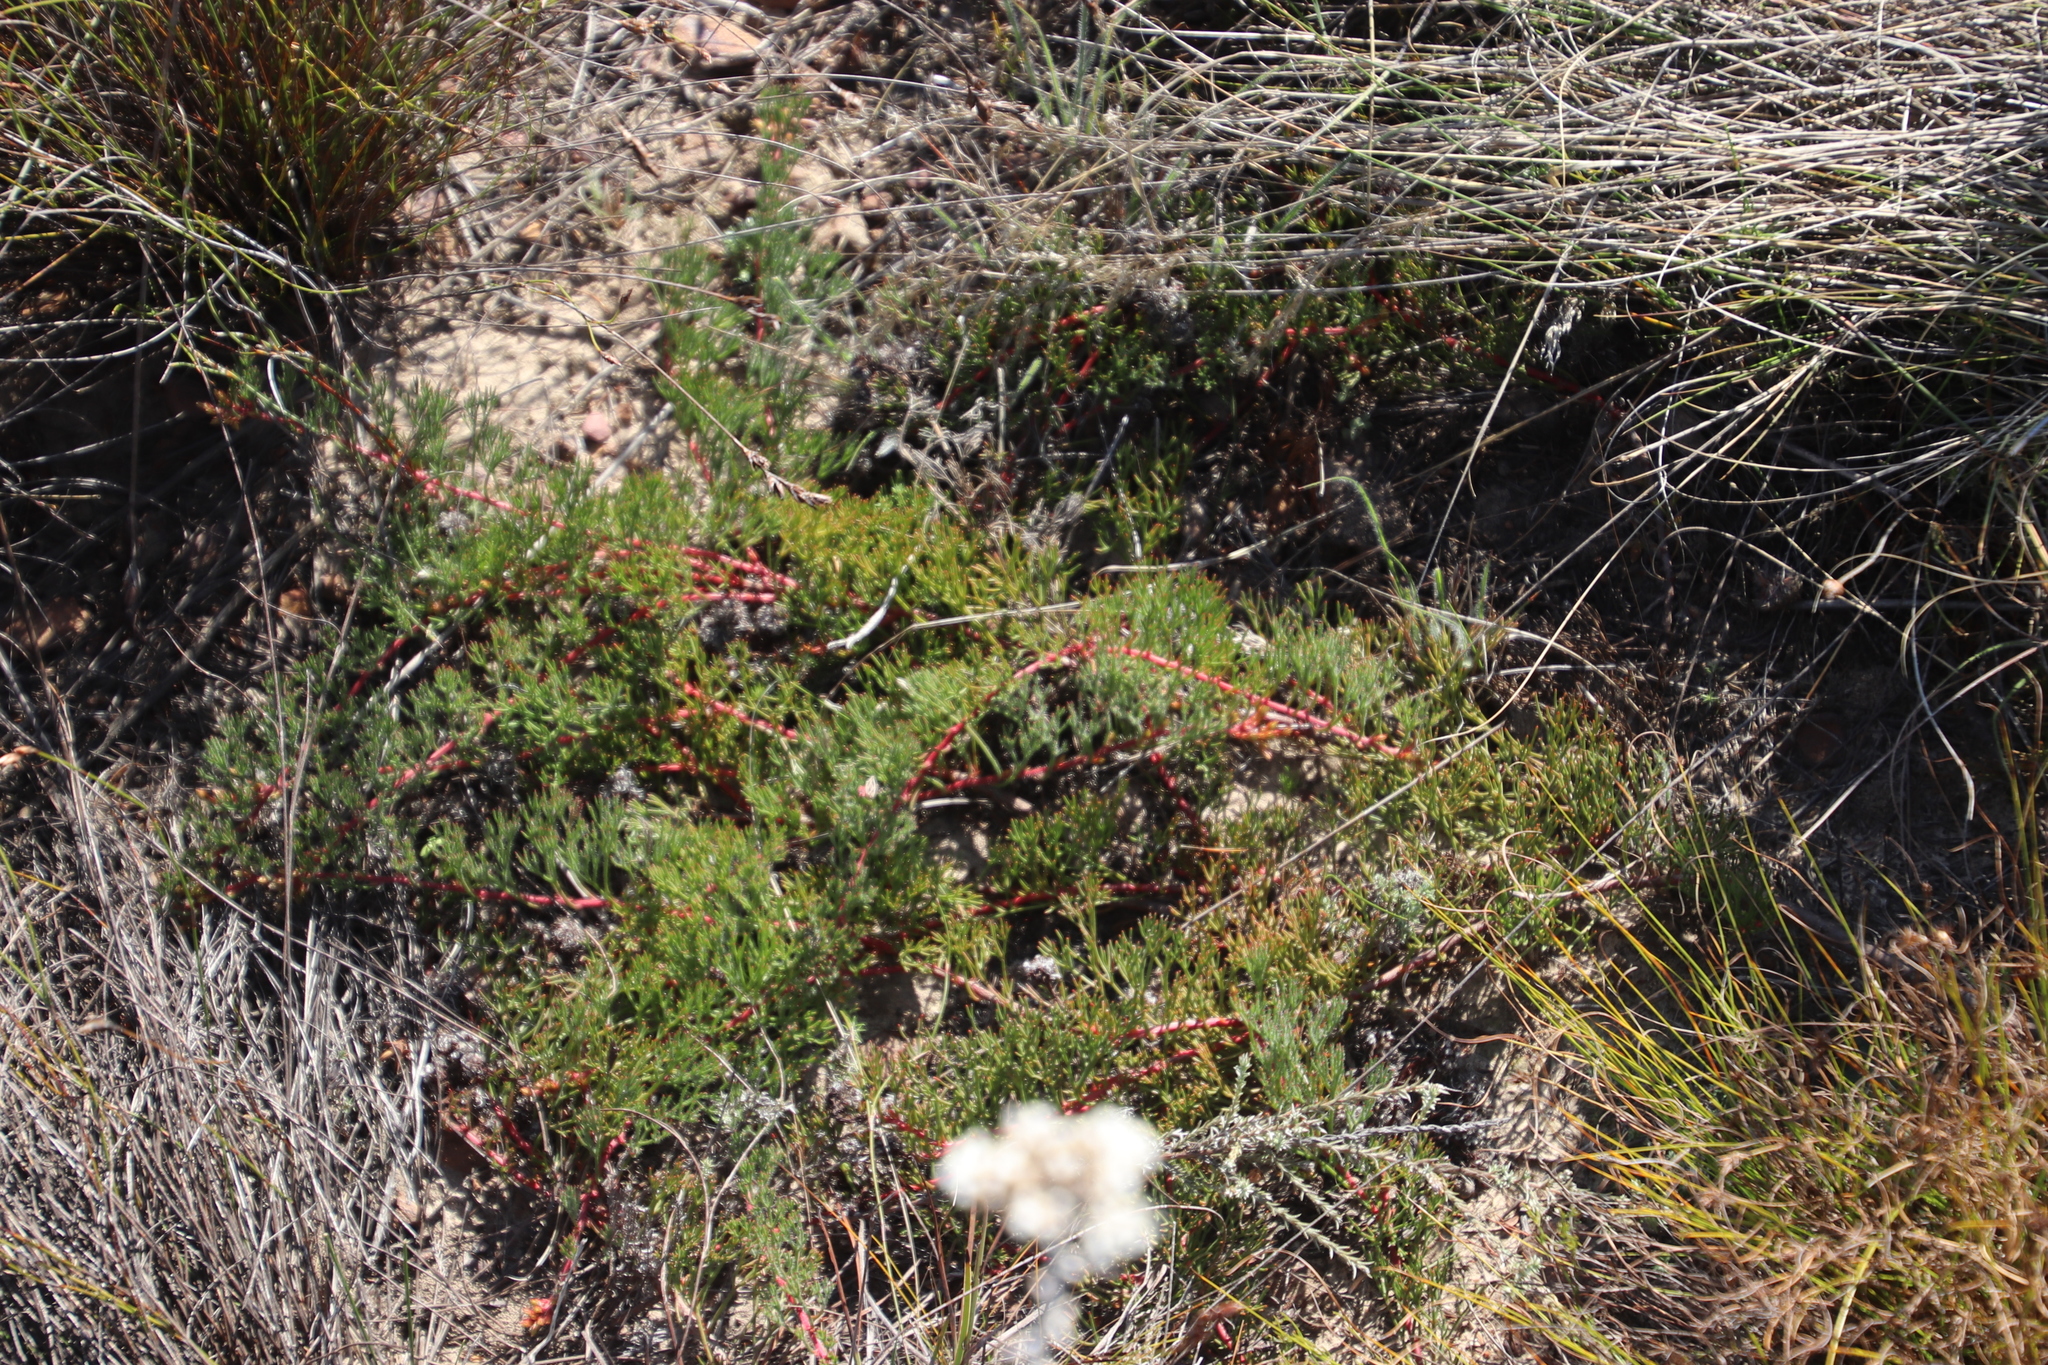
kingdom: Plantae
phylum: Tracheophyta
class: Magnoliopsida
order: Proteales
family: Proteaceae
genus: Serruria
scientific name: Serruria effusa
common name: Candelabra spiderhead
